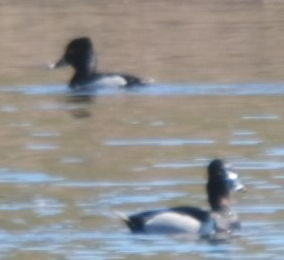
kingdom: Animalia
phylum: Chordata
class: Aves
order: Anseriformes
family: Anatidae
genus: Aythya
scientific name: Aythya collaris
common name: Ring-necked duck
